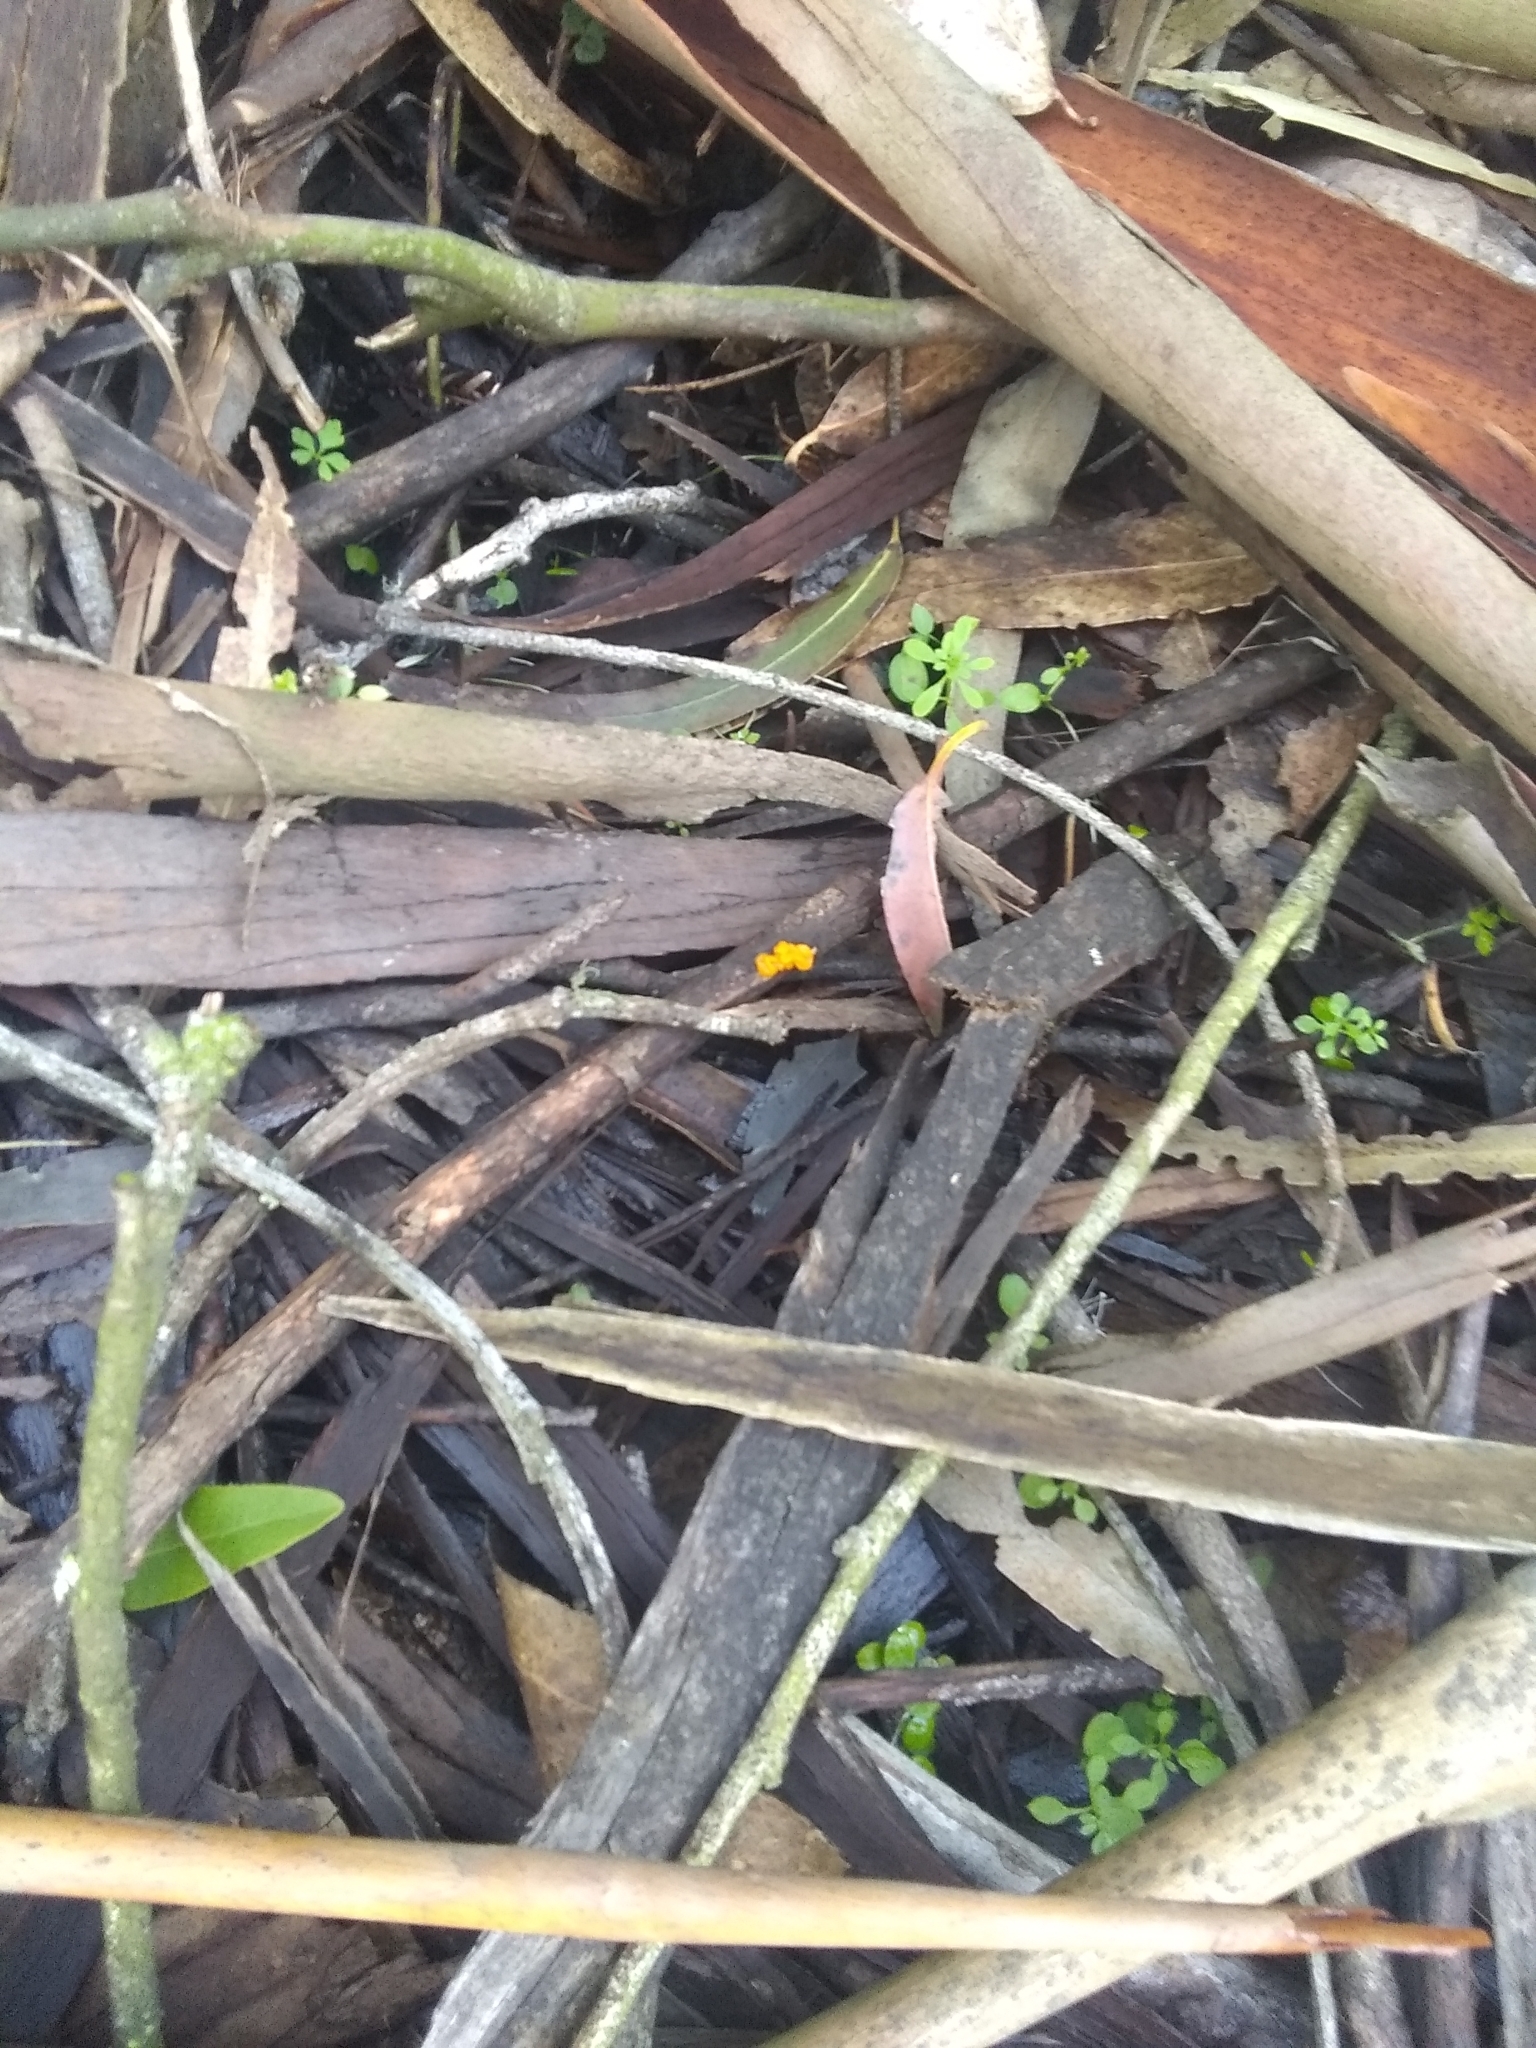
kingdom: Fungi
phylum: Basidiomycota
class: Tremellomycetes
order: Tremellales
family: Tremellaceae
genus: Tremella
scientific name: Tremella mesenterica
